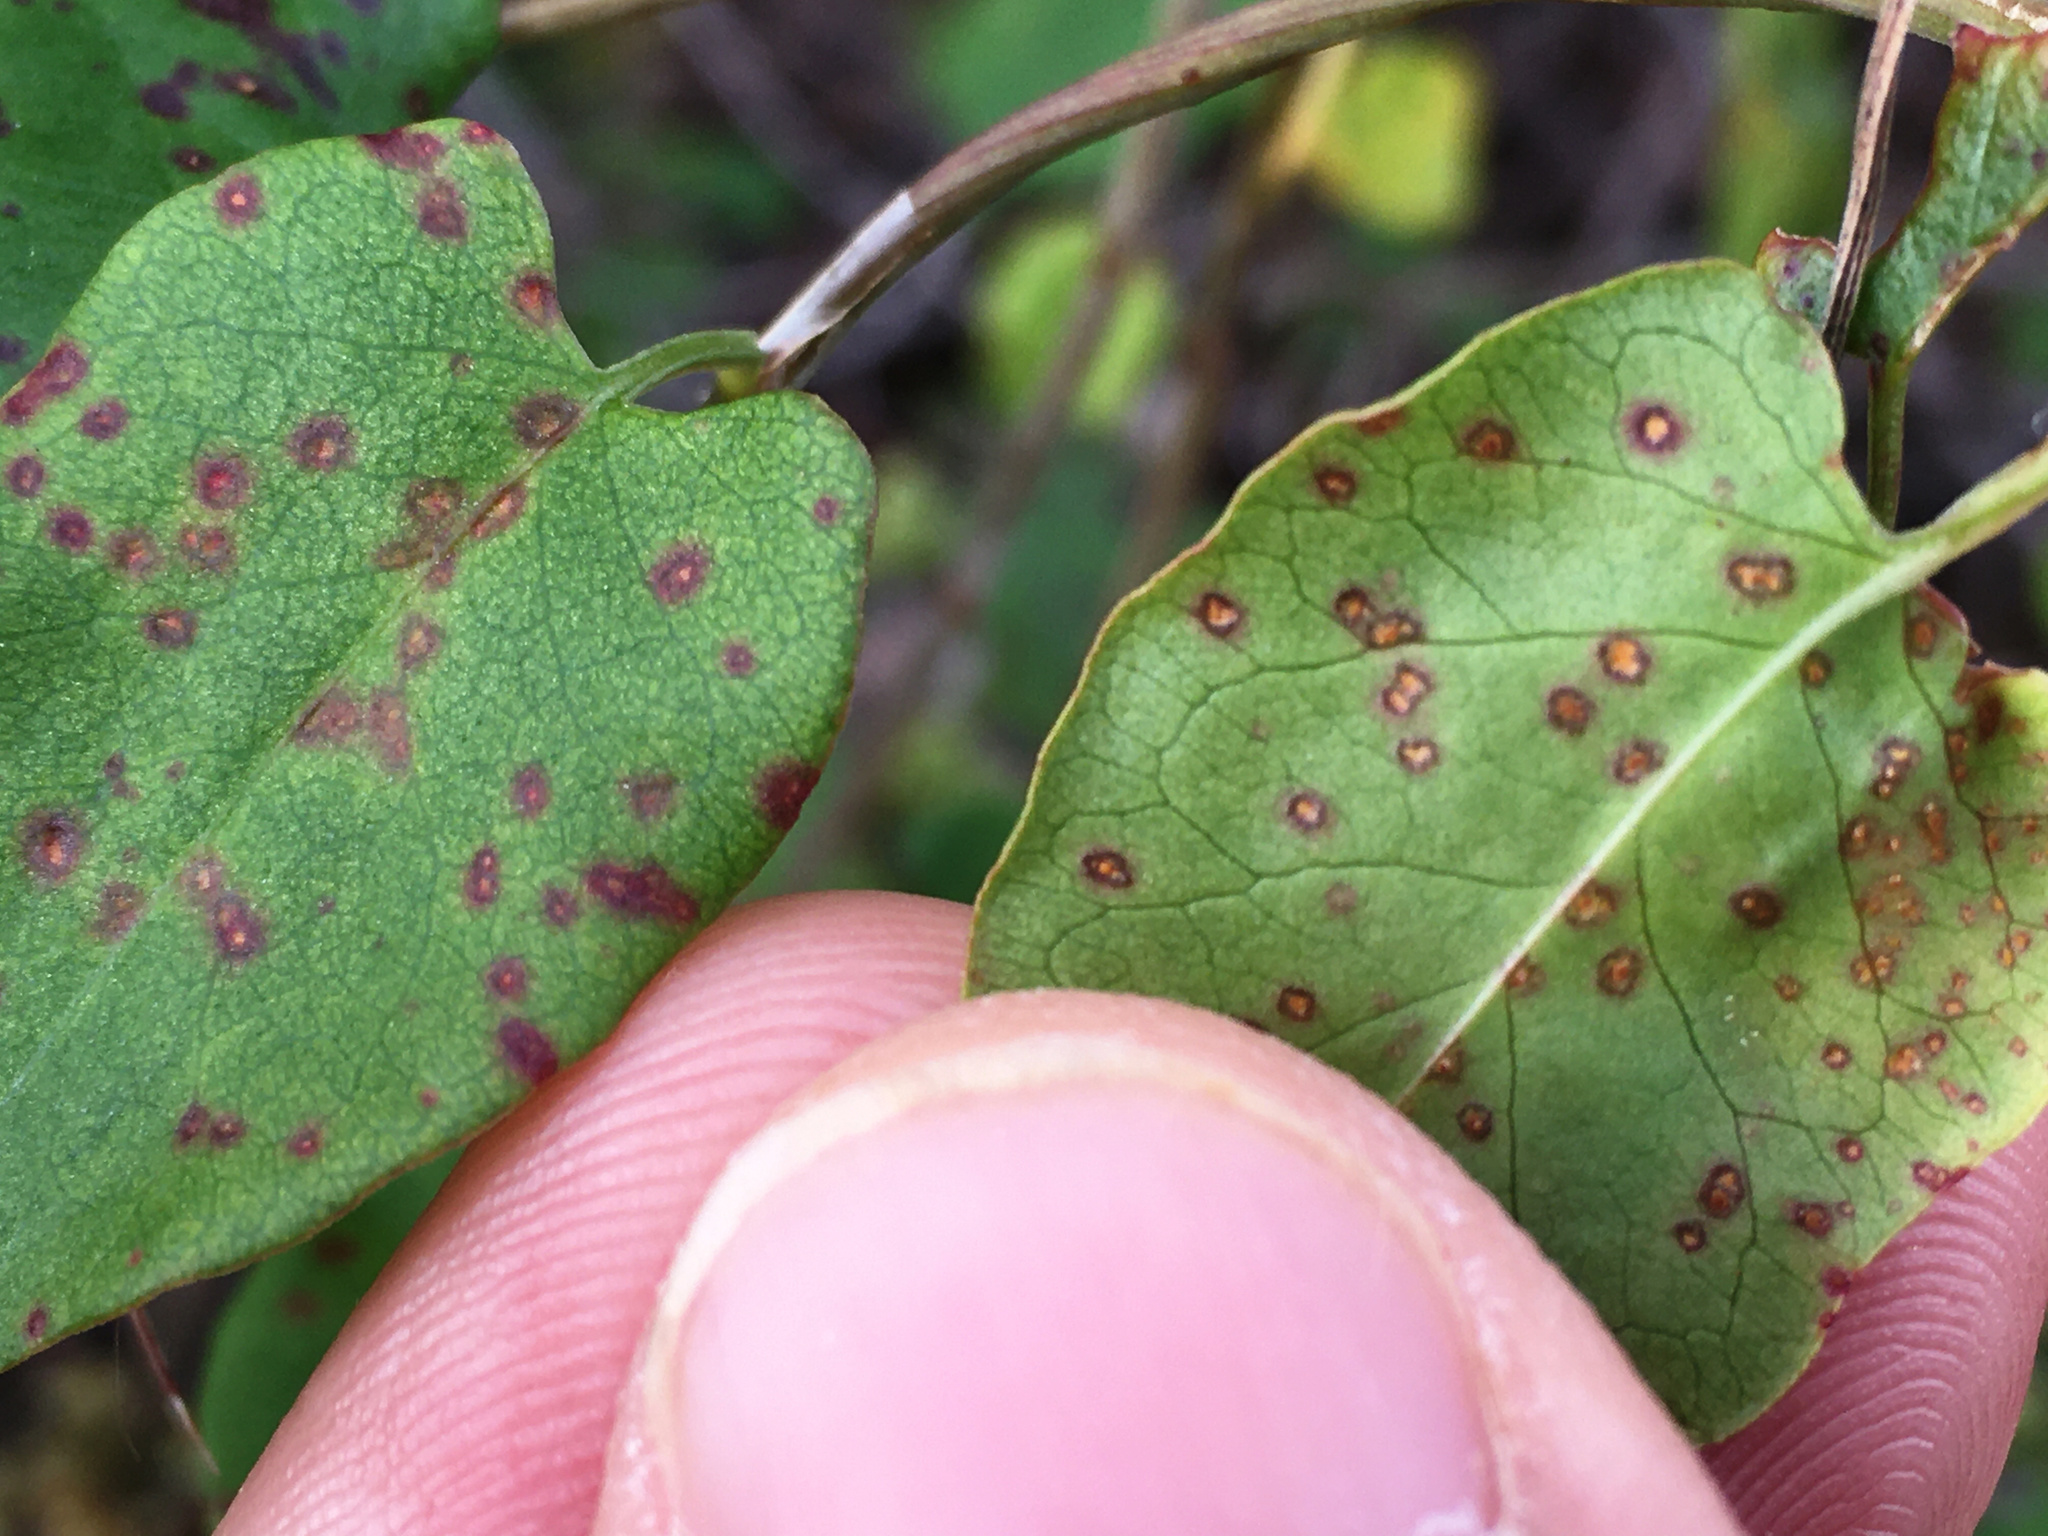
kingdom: Fungi
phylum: Basidiomycota
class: Pucciniomycetes
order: Pucciniales
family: Pucciniaceae
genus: Puccinia
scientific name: Puccinia otagensis
